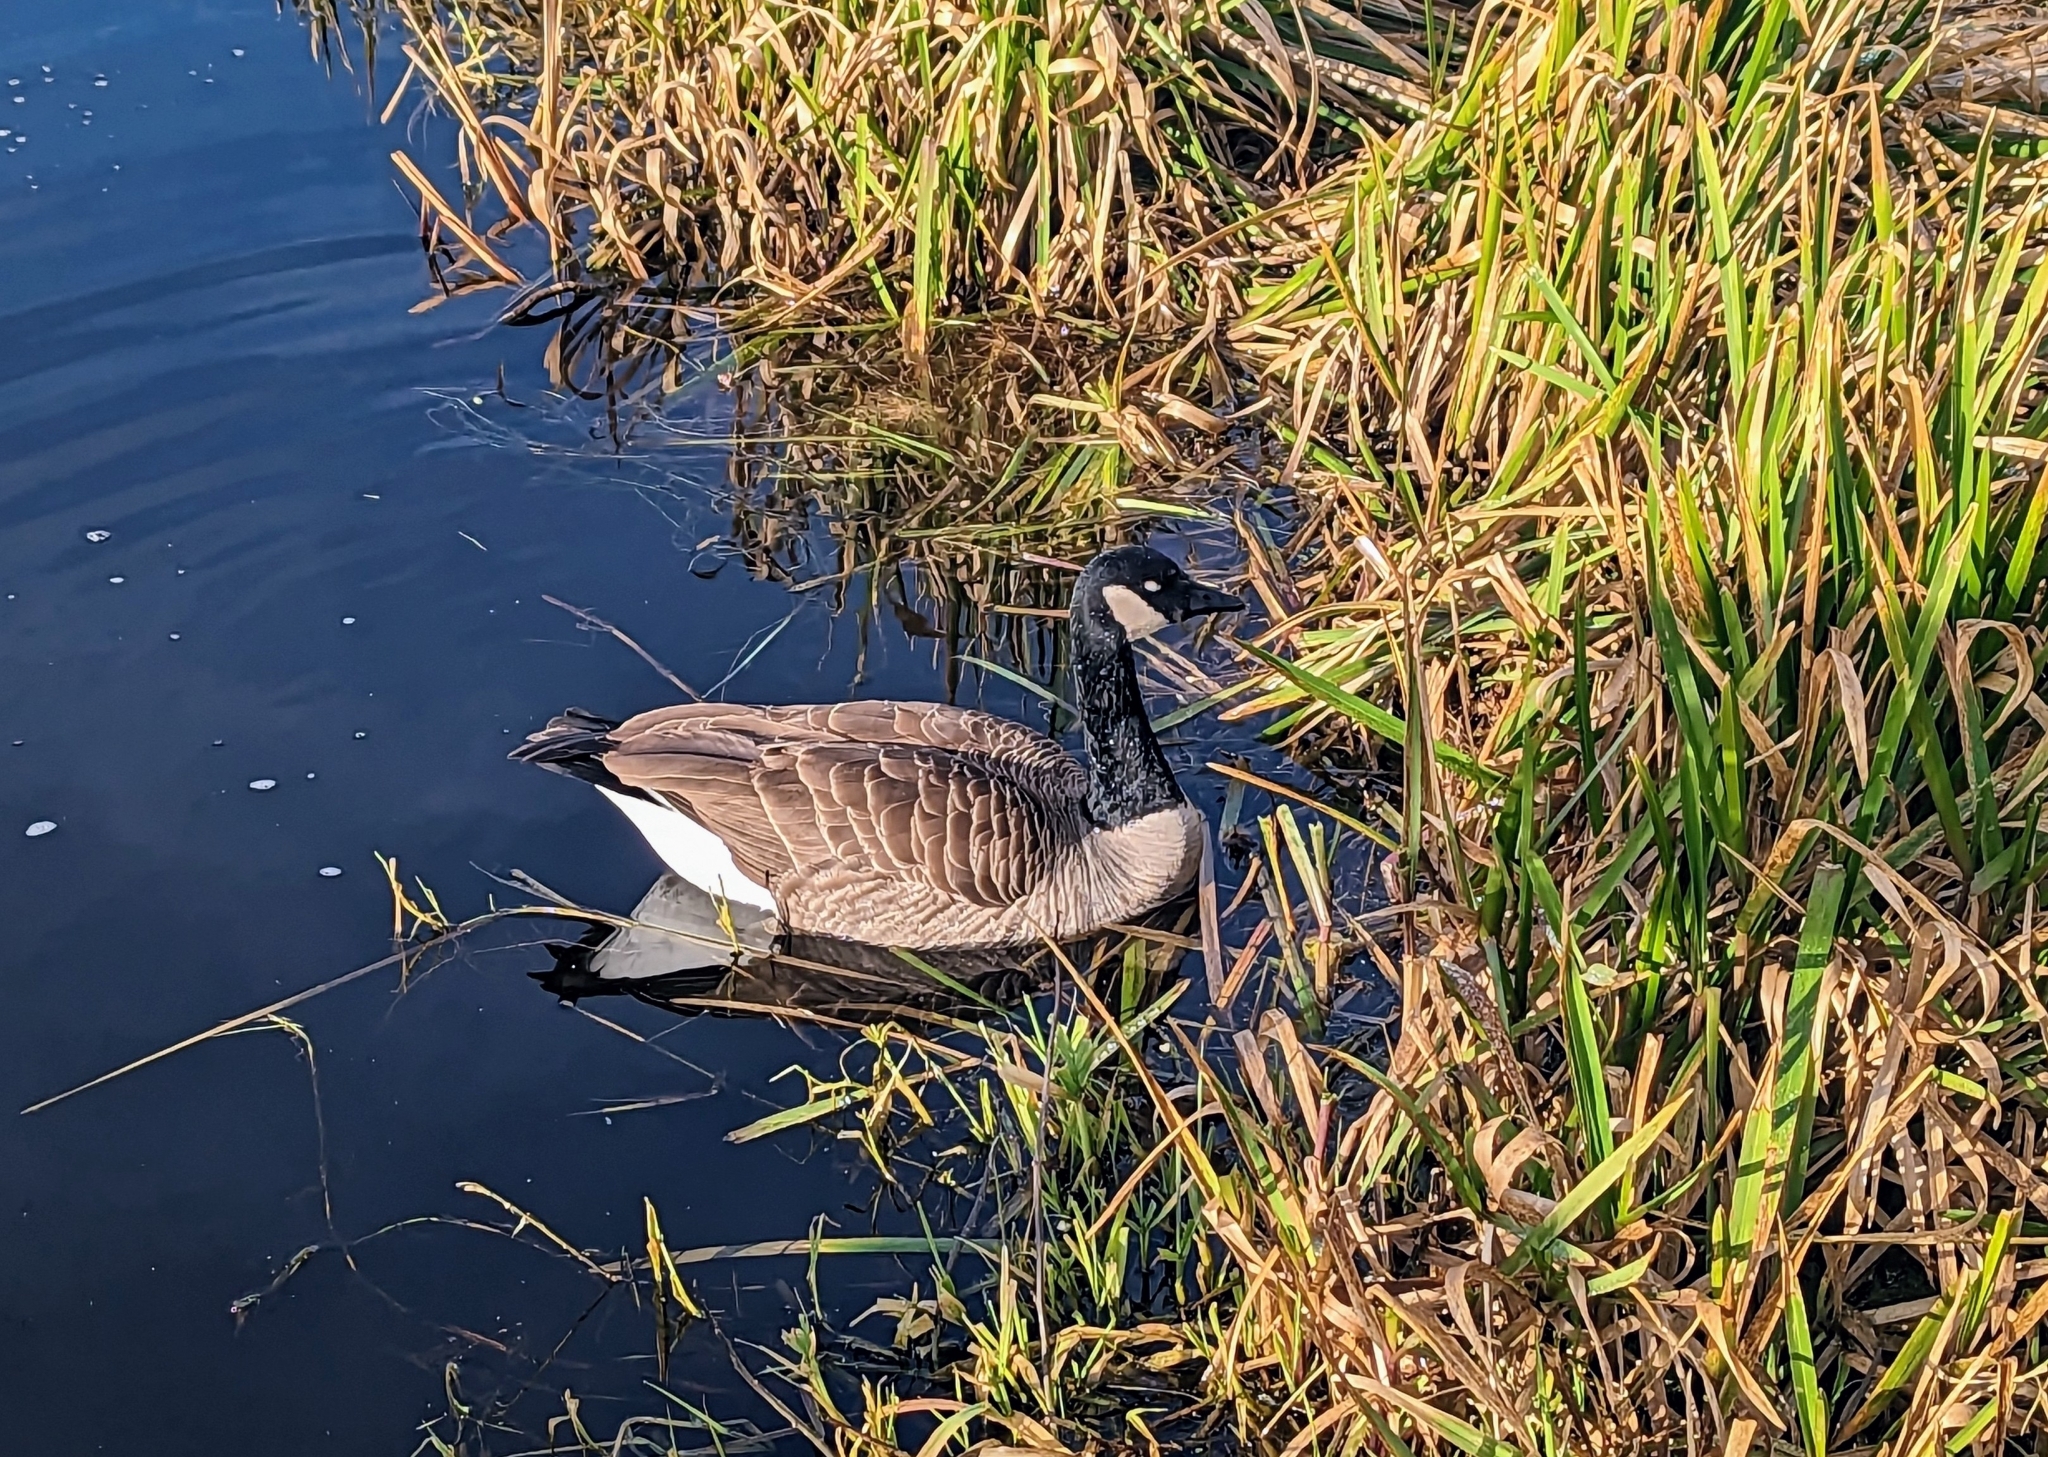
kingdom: Animalia
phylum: Chordata
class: Aves
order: Anseriformes
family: Anatidae
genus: Branta
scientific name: Branta canadensis
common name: Canada goose
